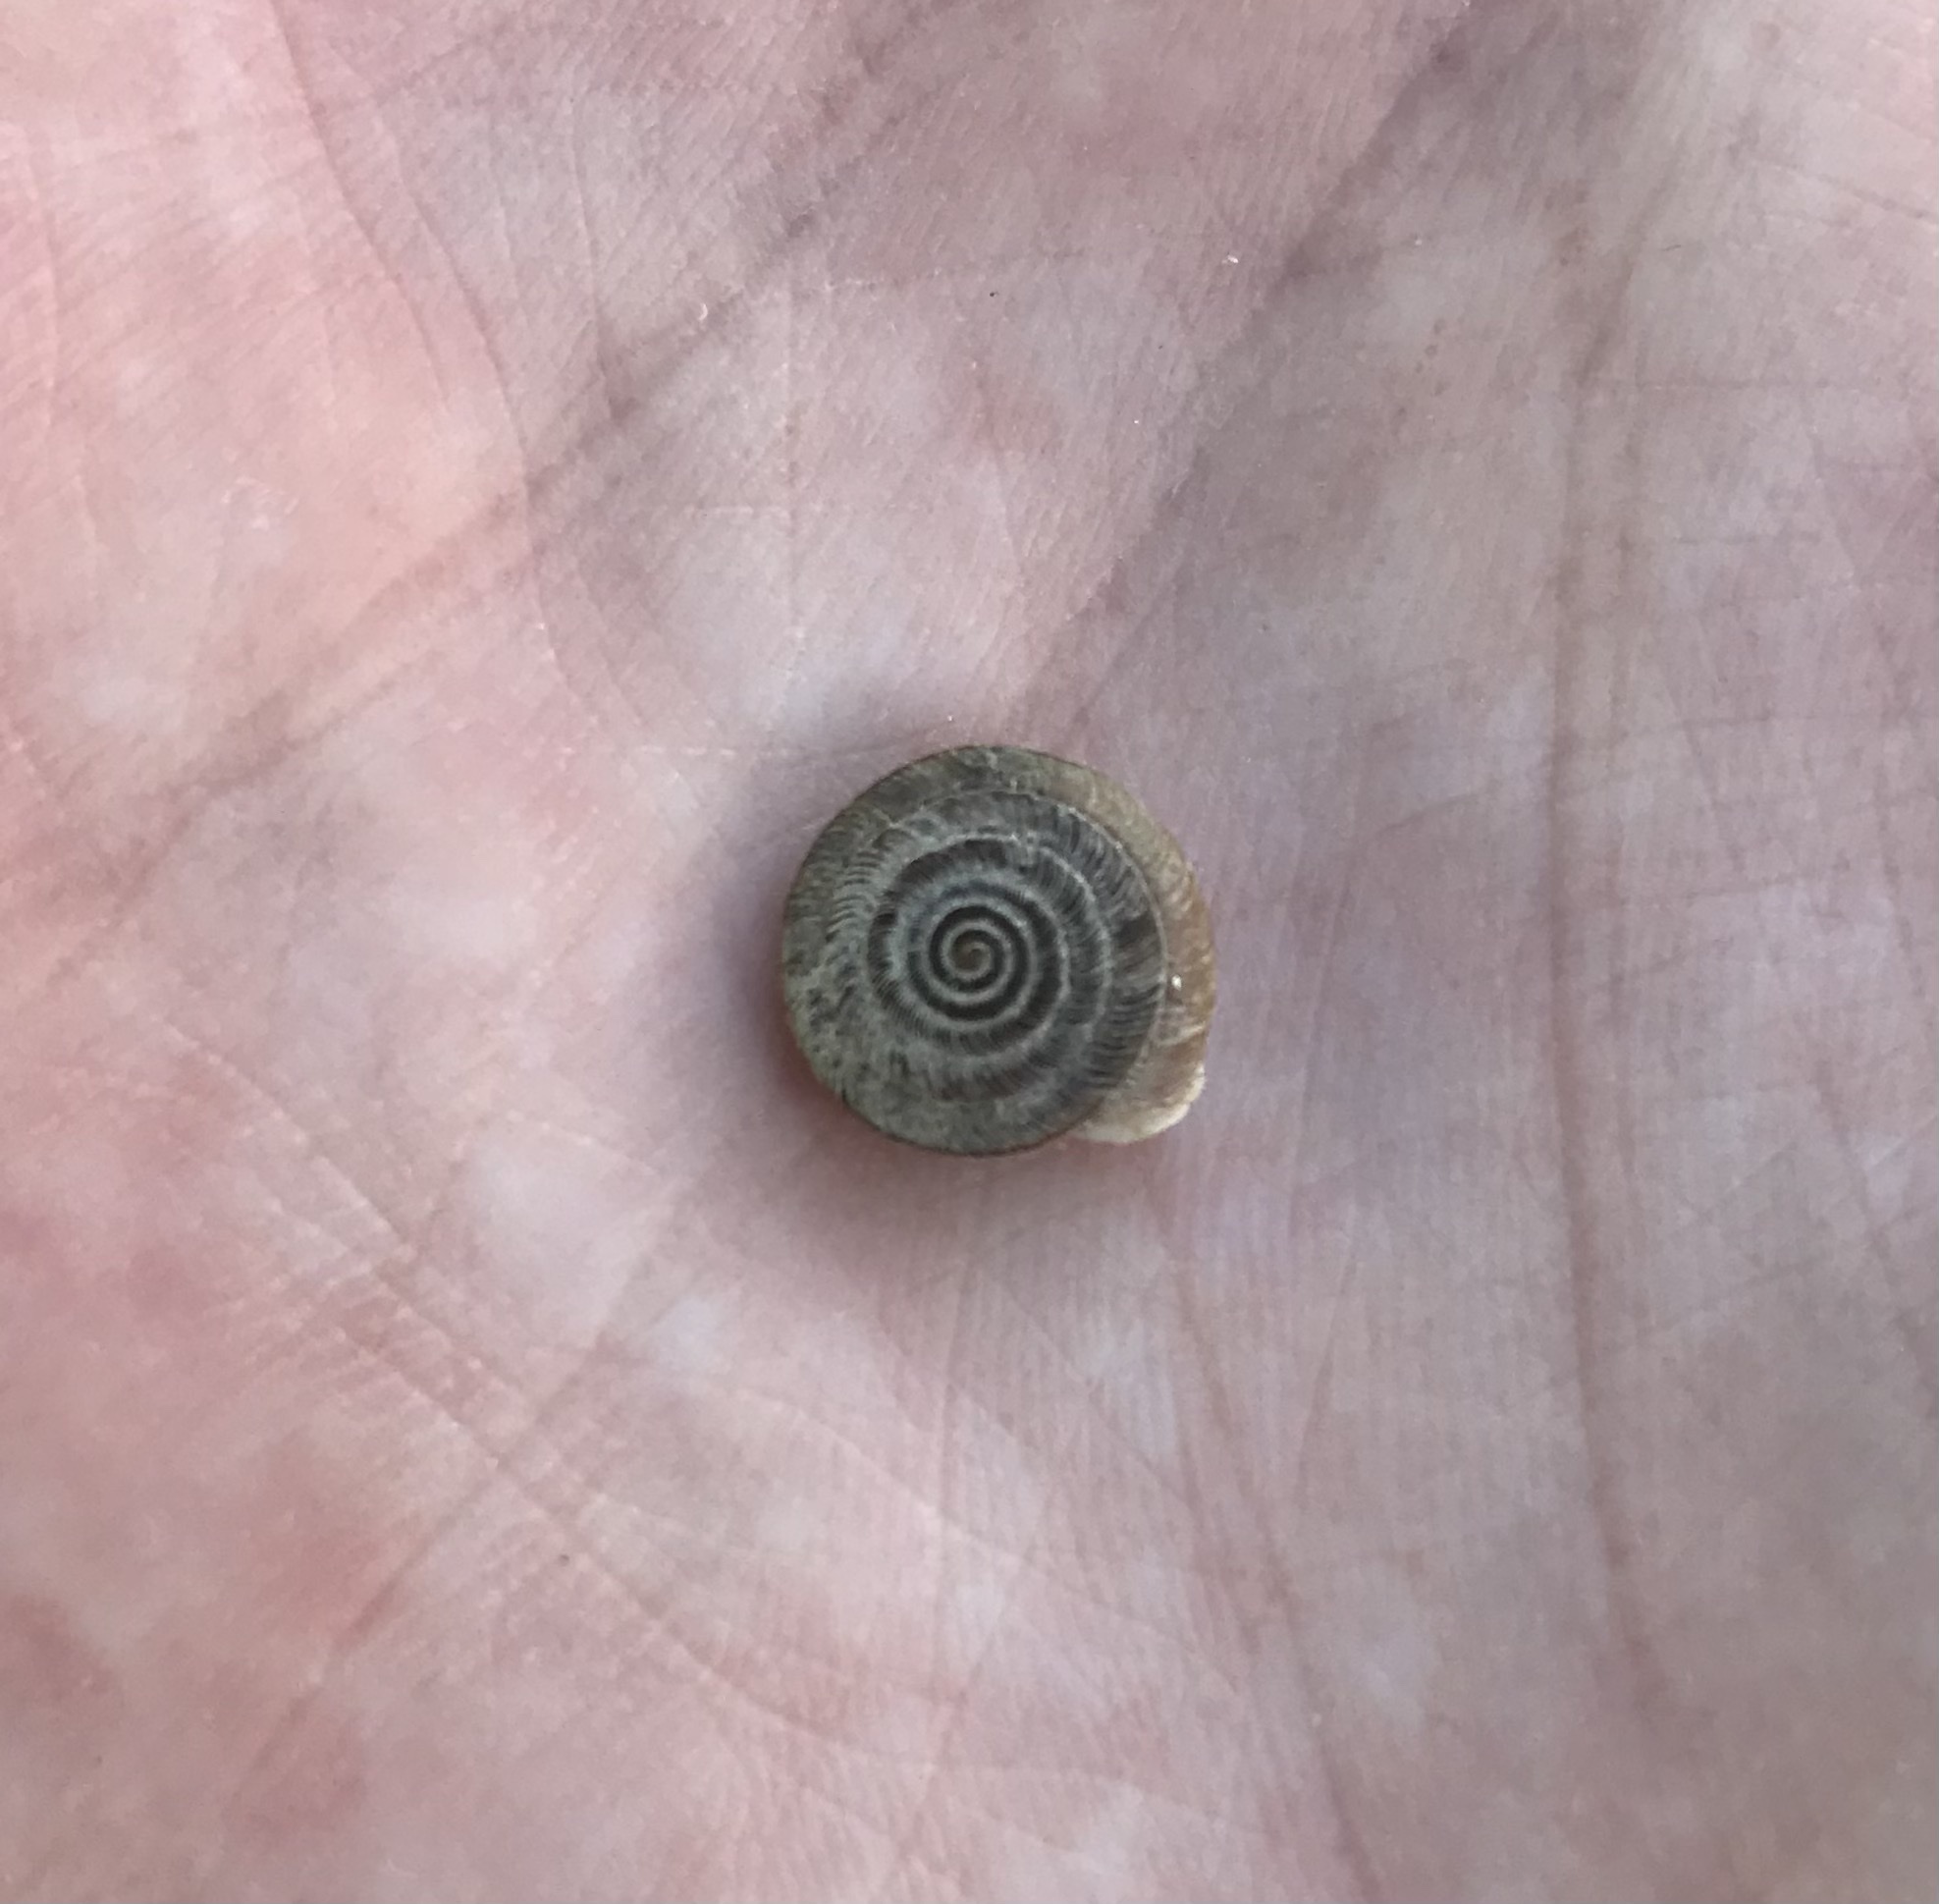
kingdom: Animalia
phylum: Mollusca
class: Gastropoda
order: Stylommatophora
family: Helicodontidae
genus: Lindholmiola
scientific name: Lindholmiola lens
